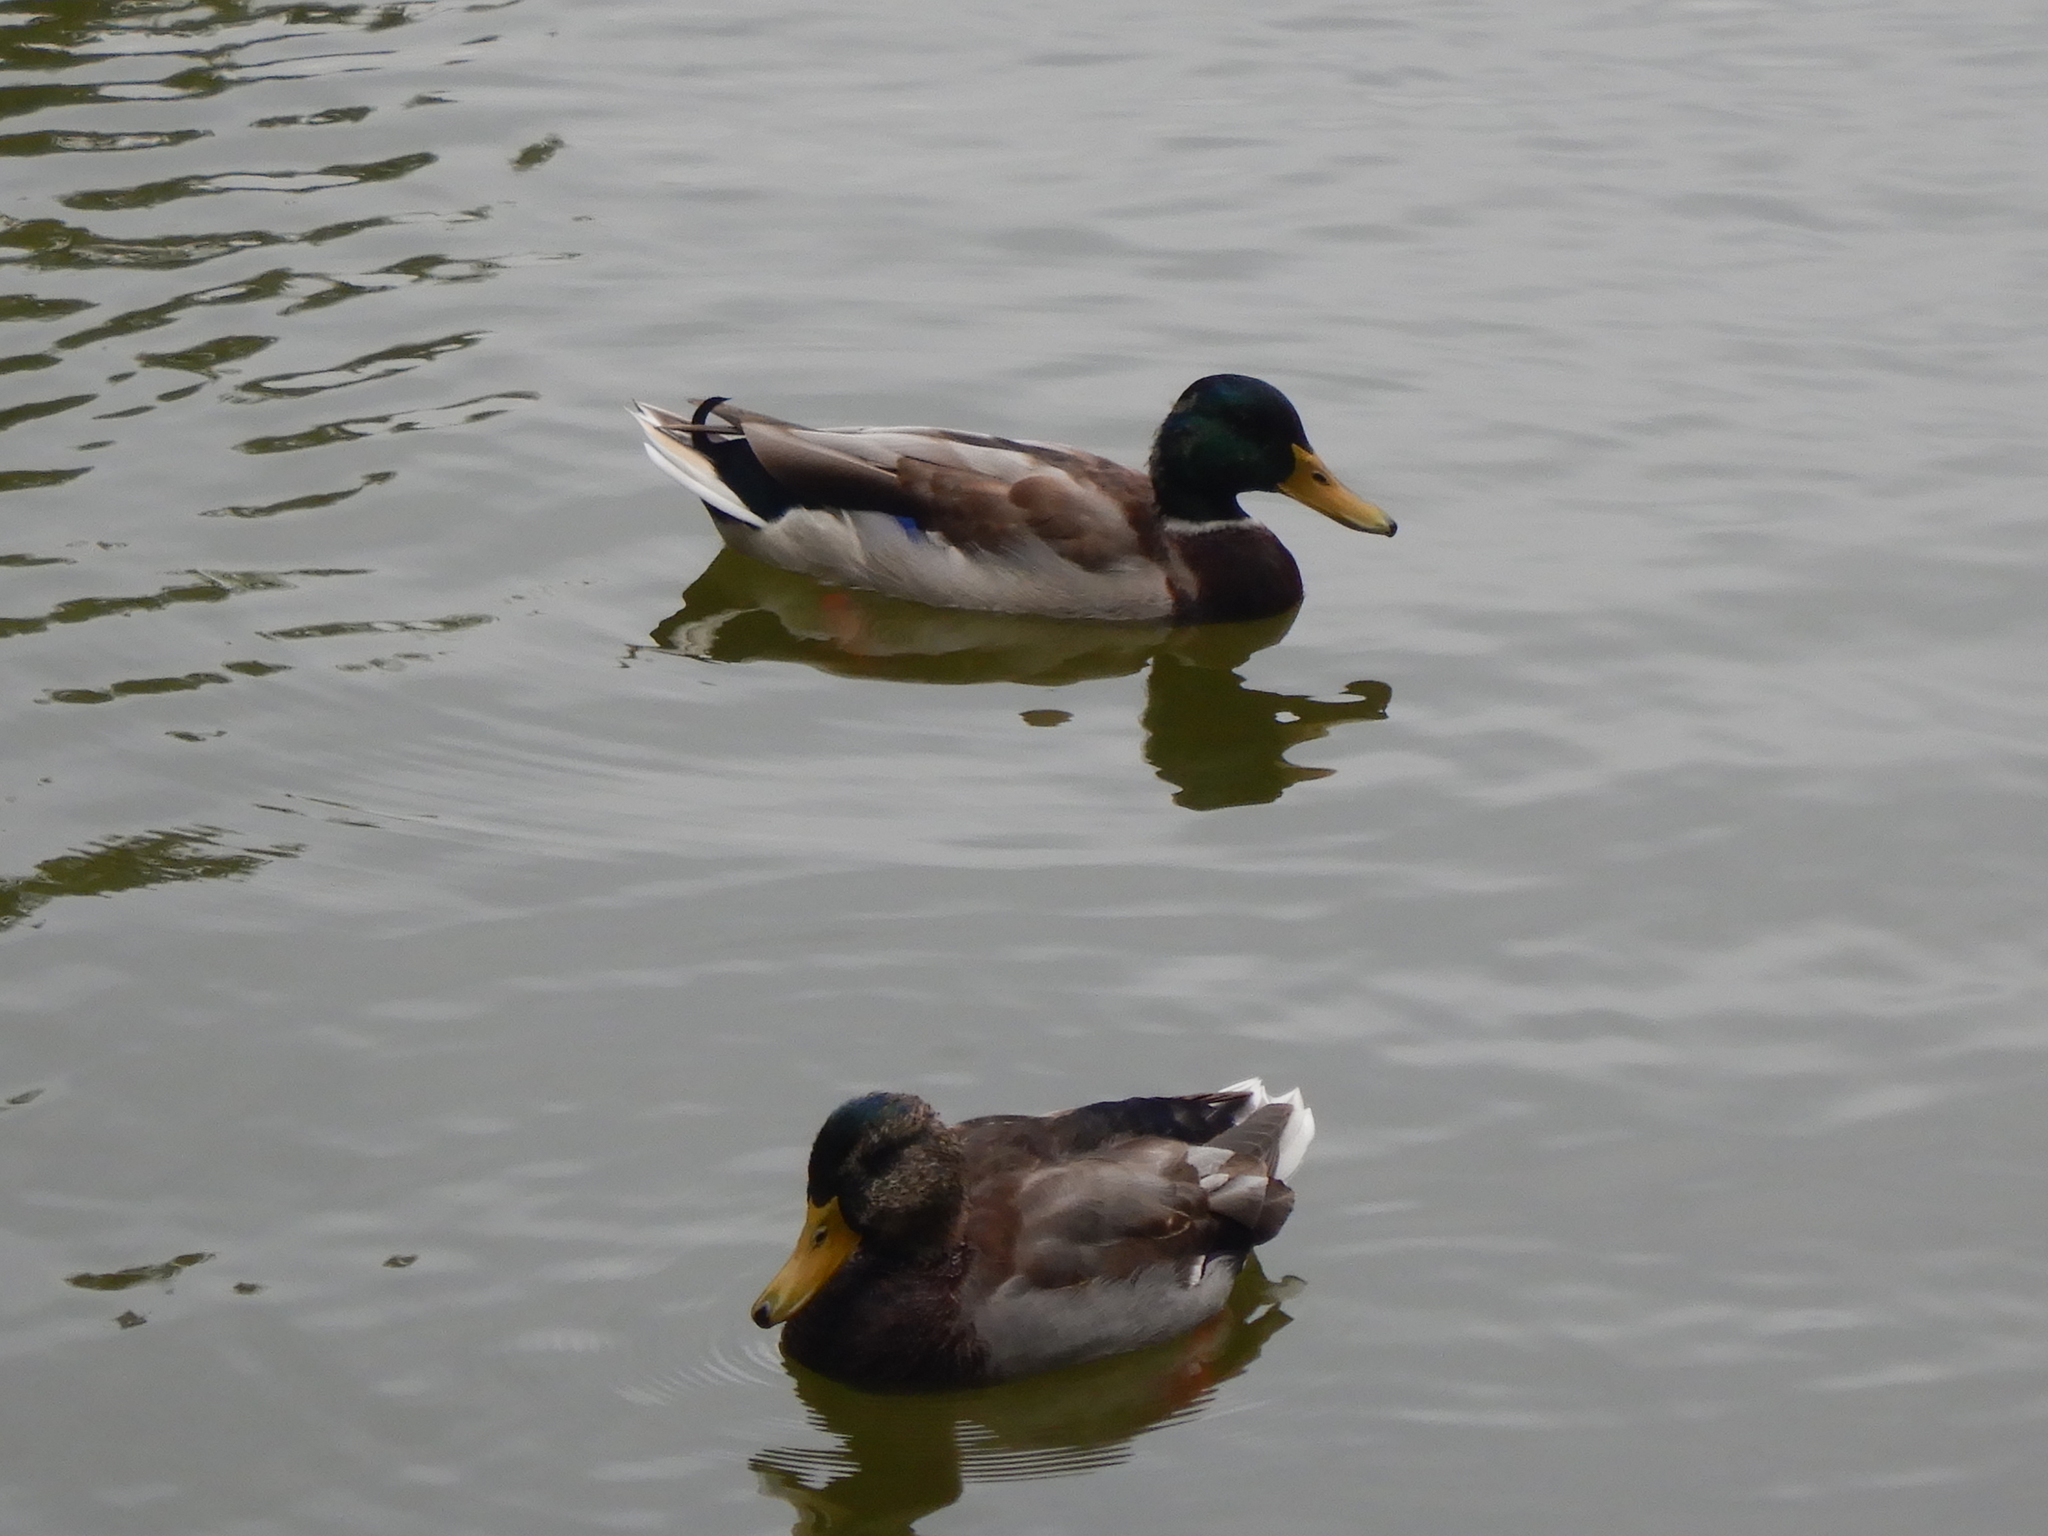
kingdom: Animalia
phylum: Chordata
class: Aves
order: Anseriformes
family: Anatidae
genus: Anas
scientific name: Anas platyrhynchos
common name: Mallard
